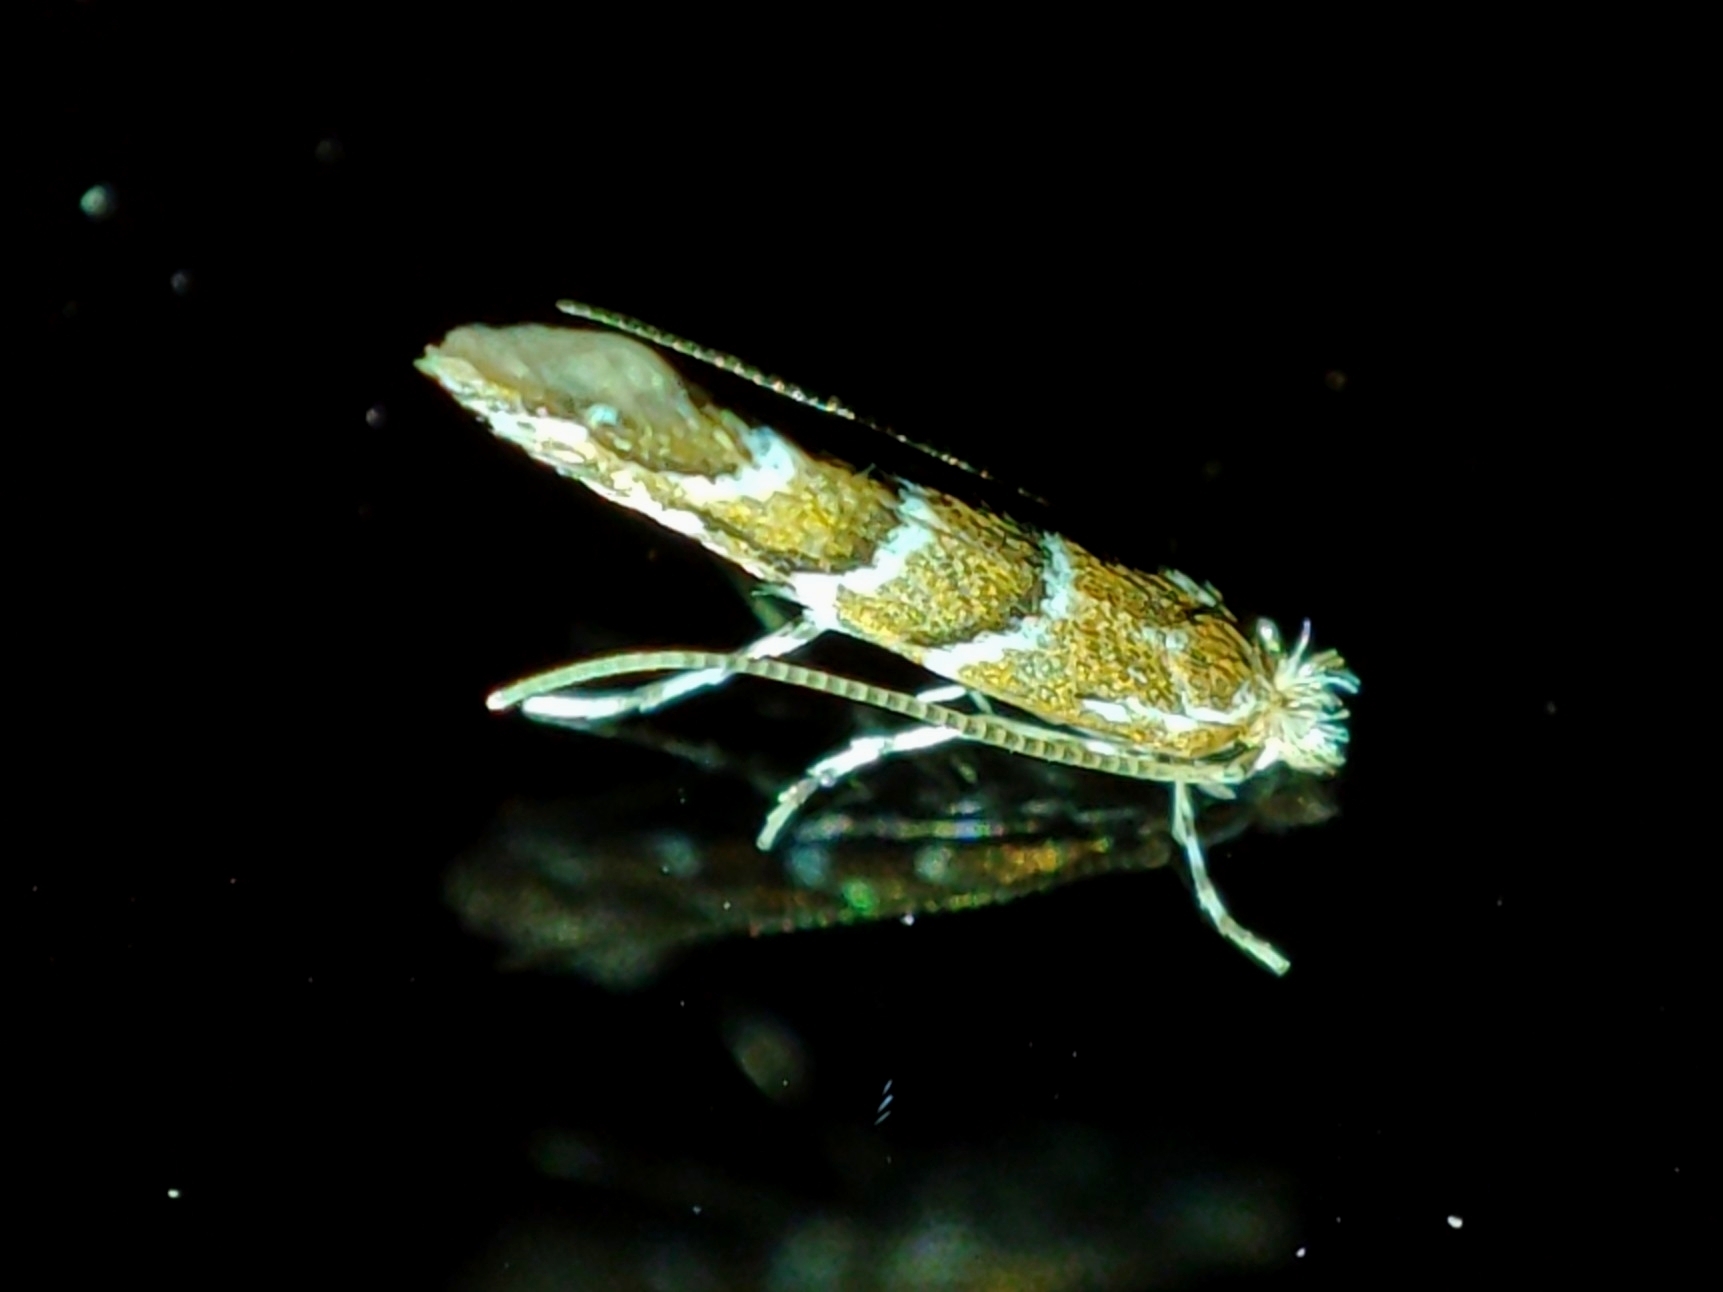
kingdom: Animalia
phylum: Arthropoda
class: Insecta
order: Lepidoptera
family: Gracillariidae
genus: Cameraria
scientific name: Cameraria ohridella
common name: Horse-chestnut leaf-miner
